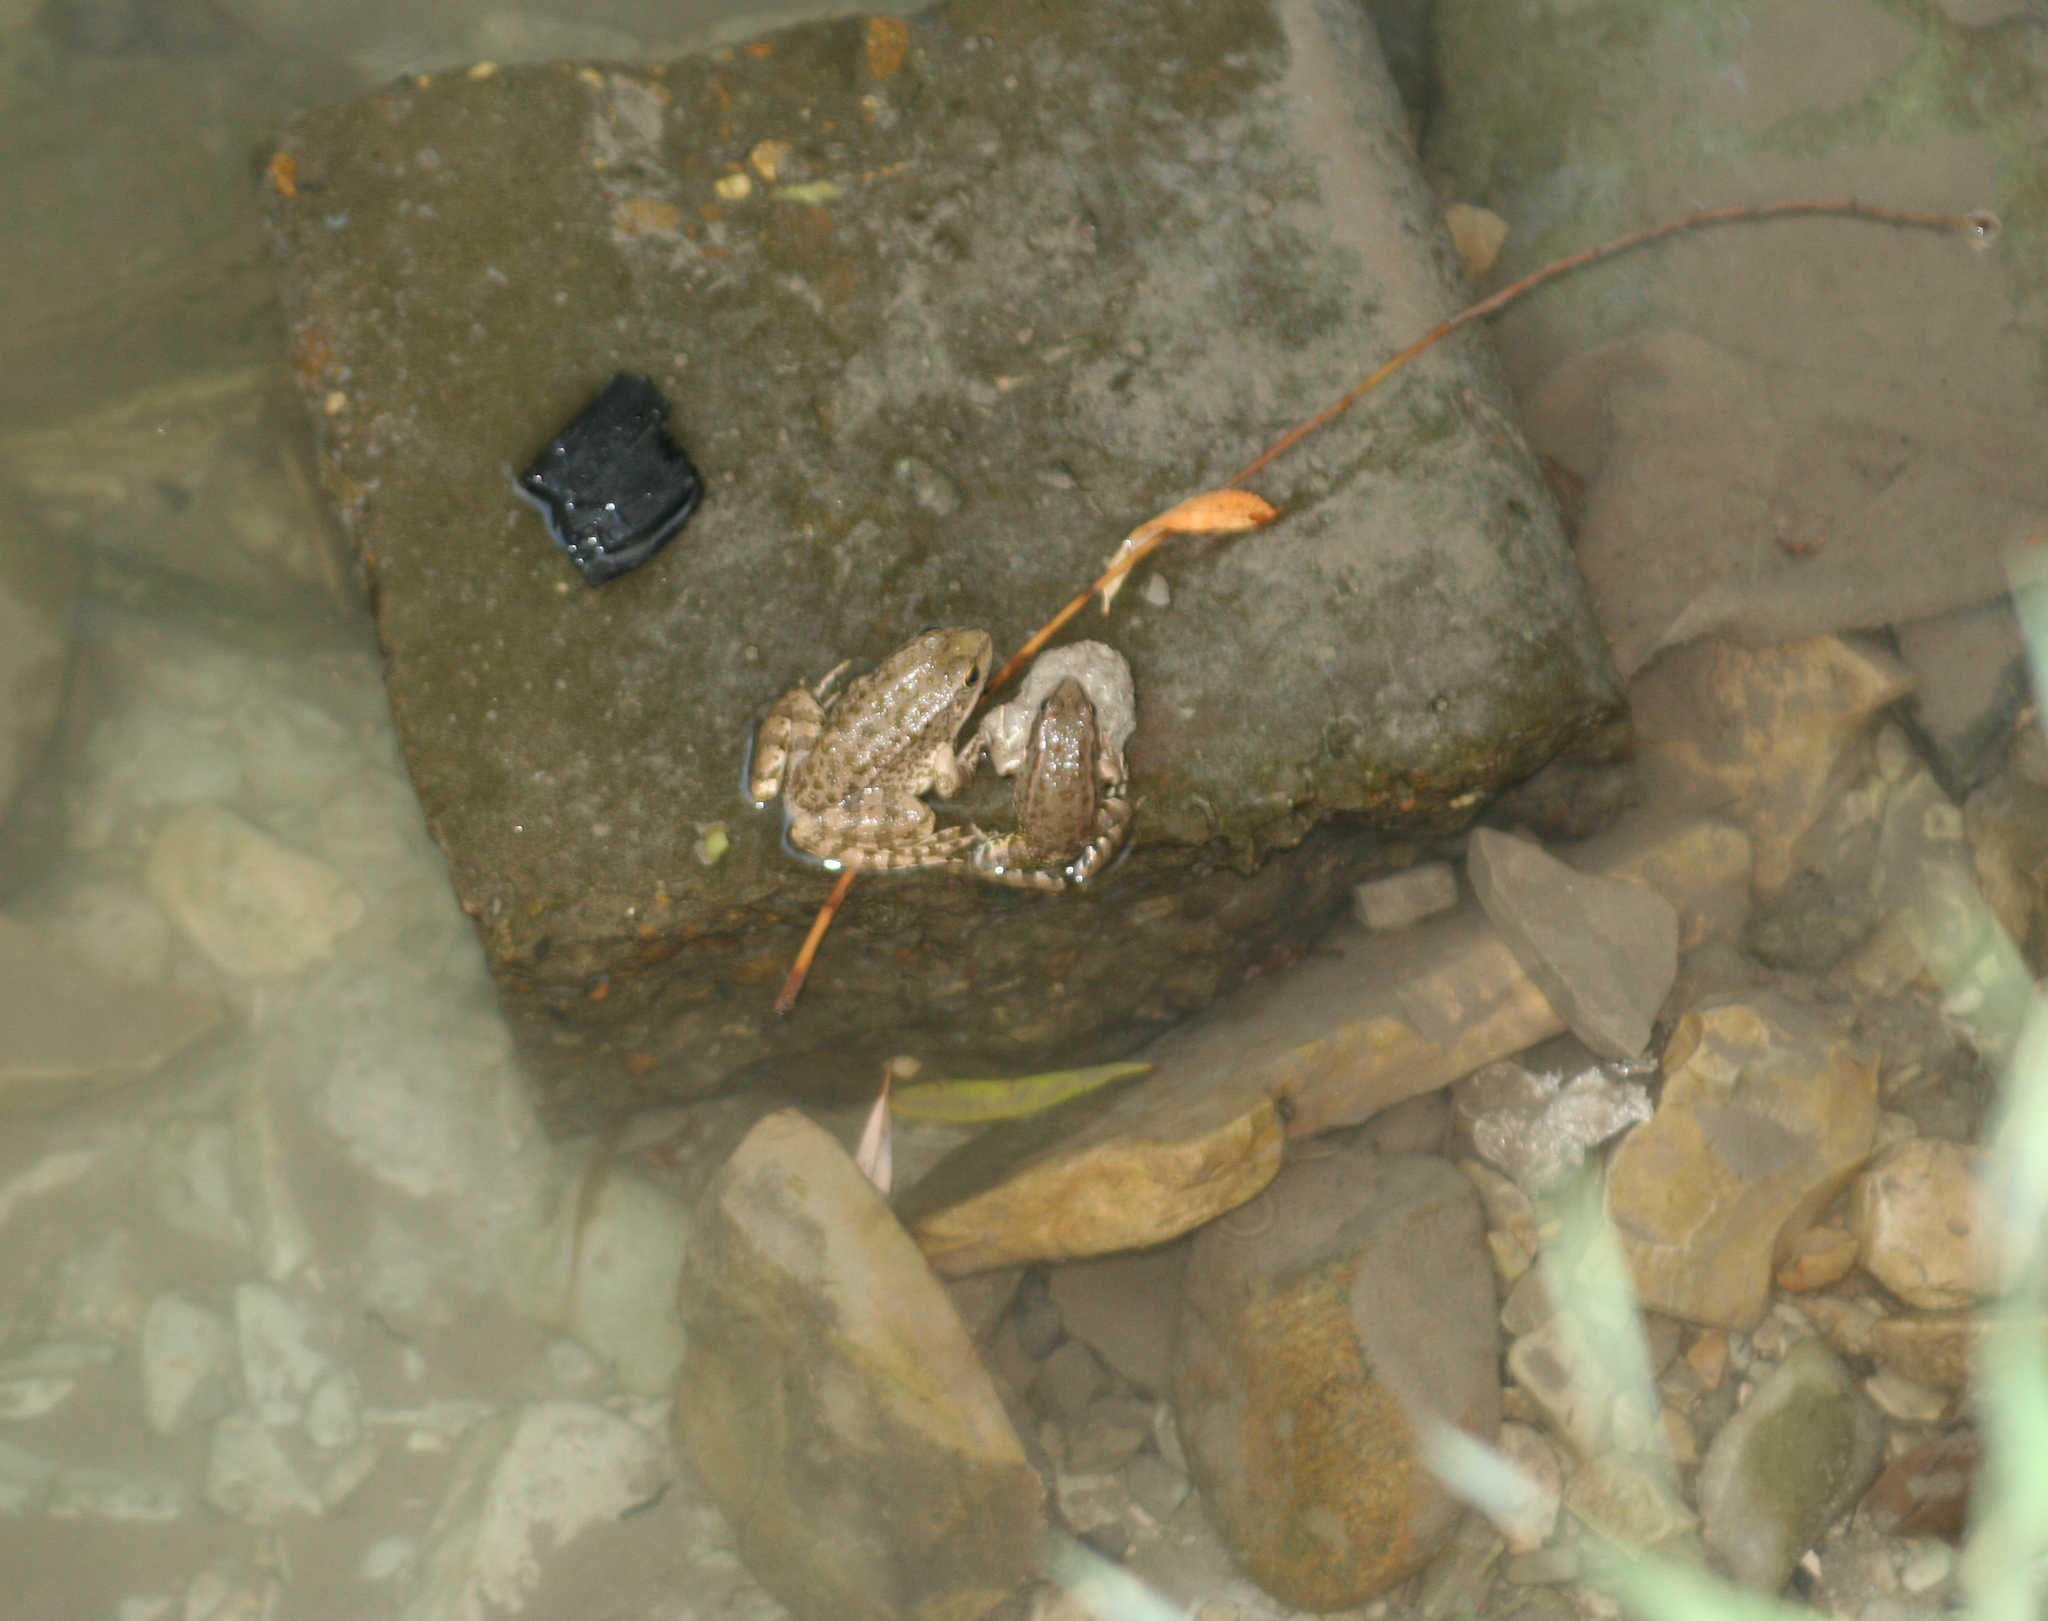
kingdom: Animalia
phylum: Chordata
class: Amphibia
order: Anura
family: Ranidae
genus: Pelophylax
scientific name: Pelophylax ridibundus
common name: Marsh frog
